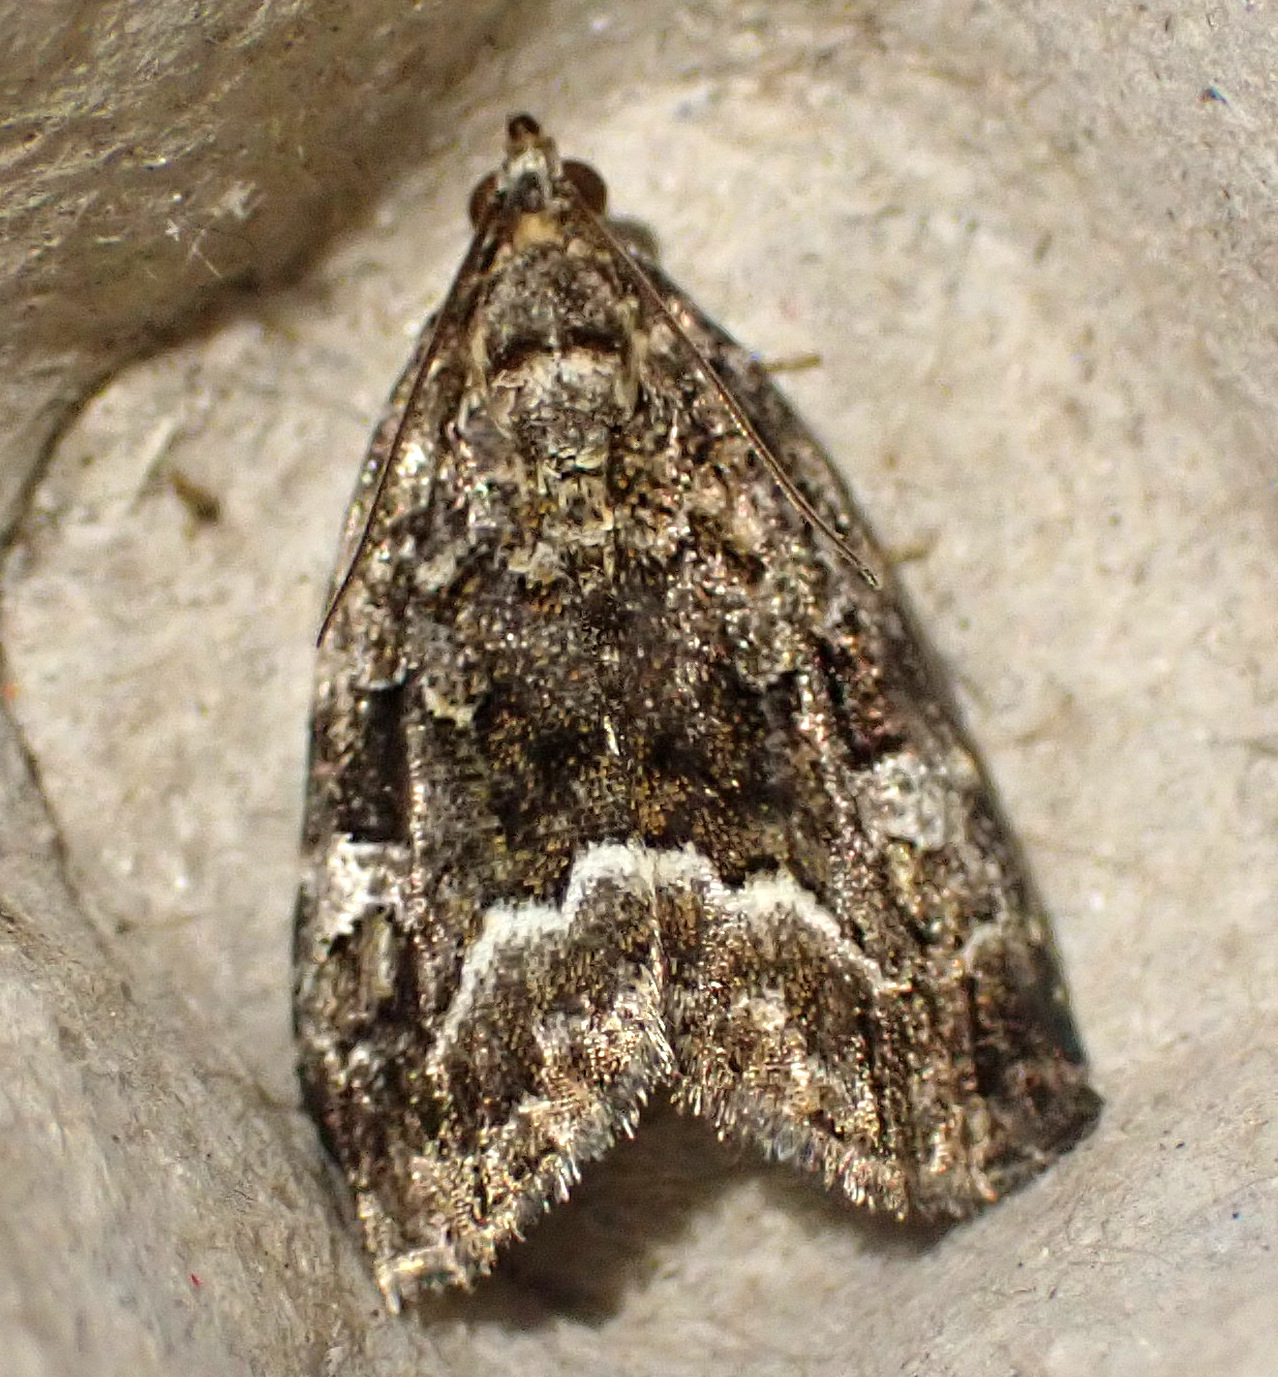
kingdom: Animalia
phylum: Arthropoda
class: Insecta
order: Lepidoptera
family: Noctuidae
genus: Deltote
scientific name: Deltote pygarga
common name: Marbled white spot
